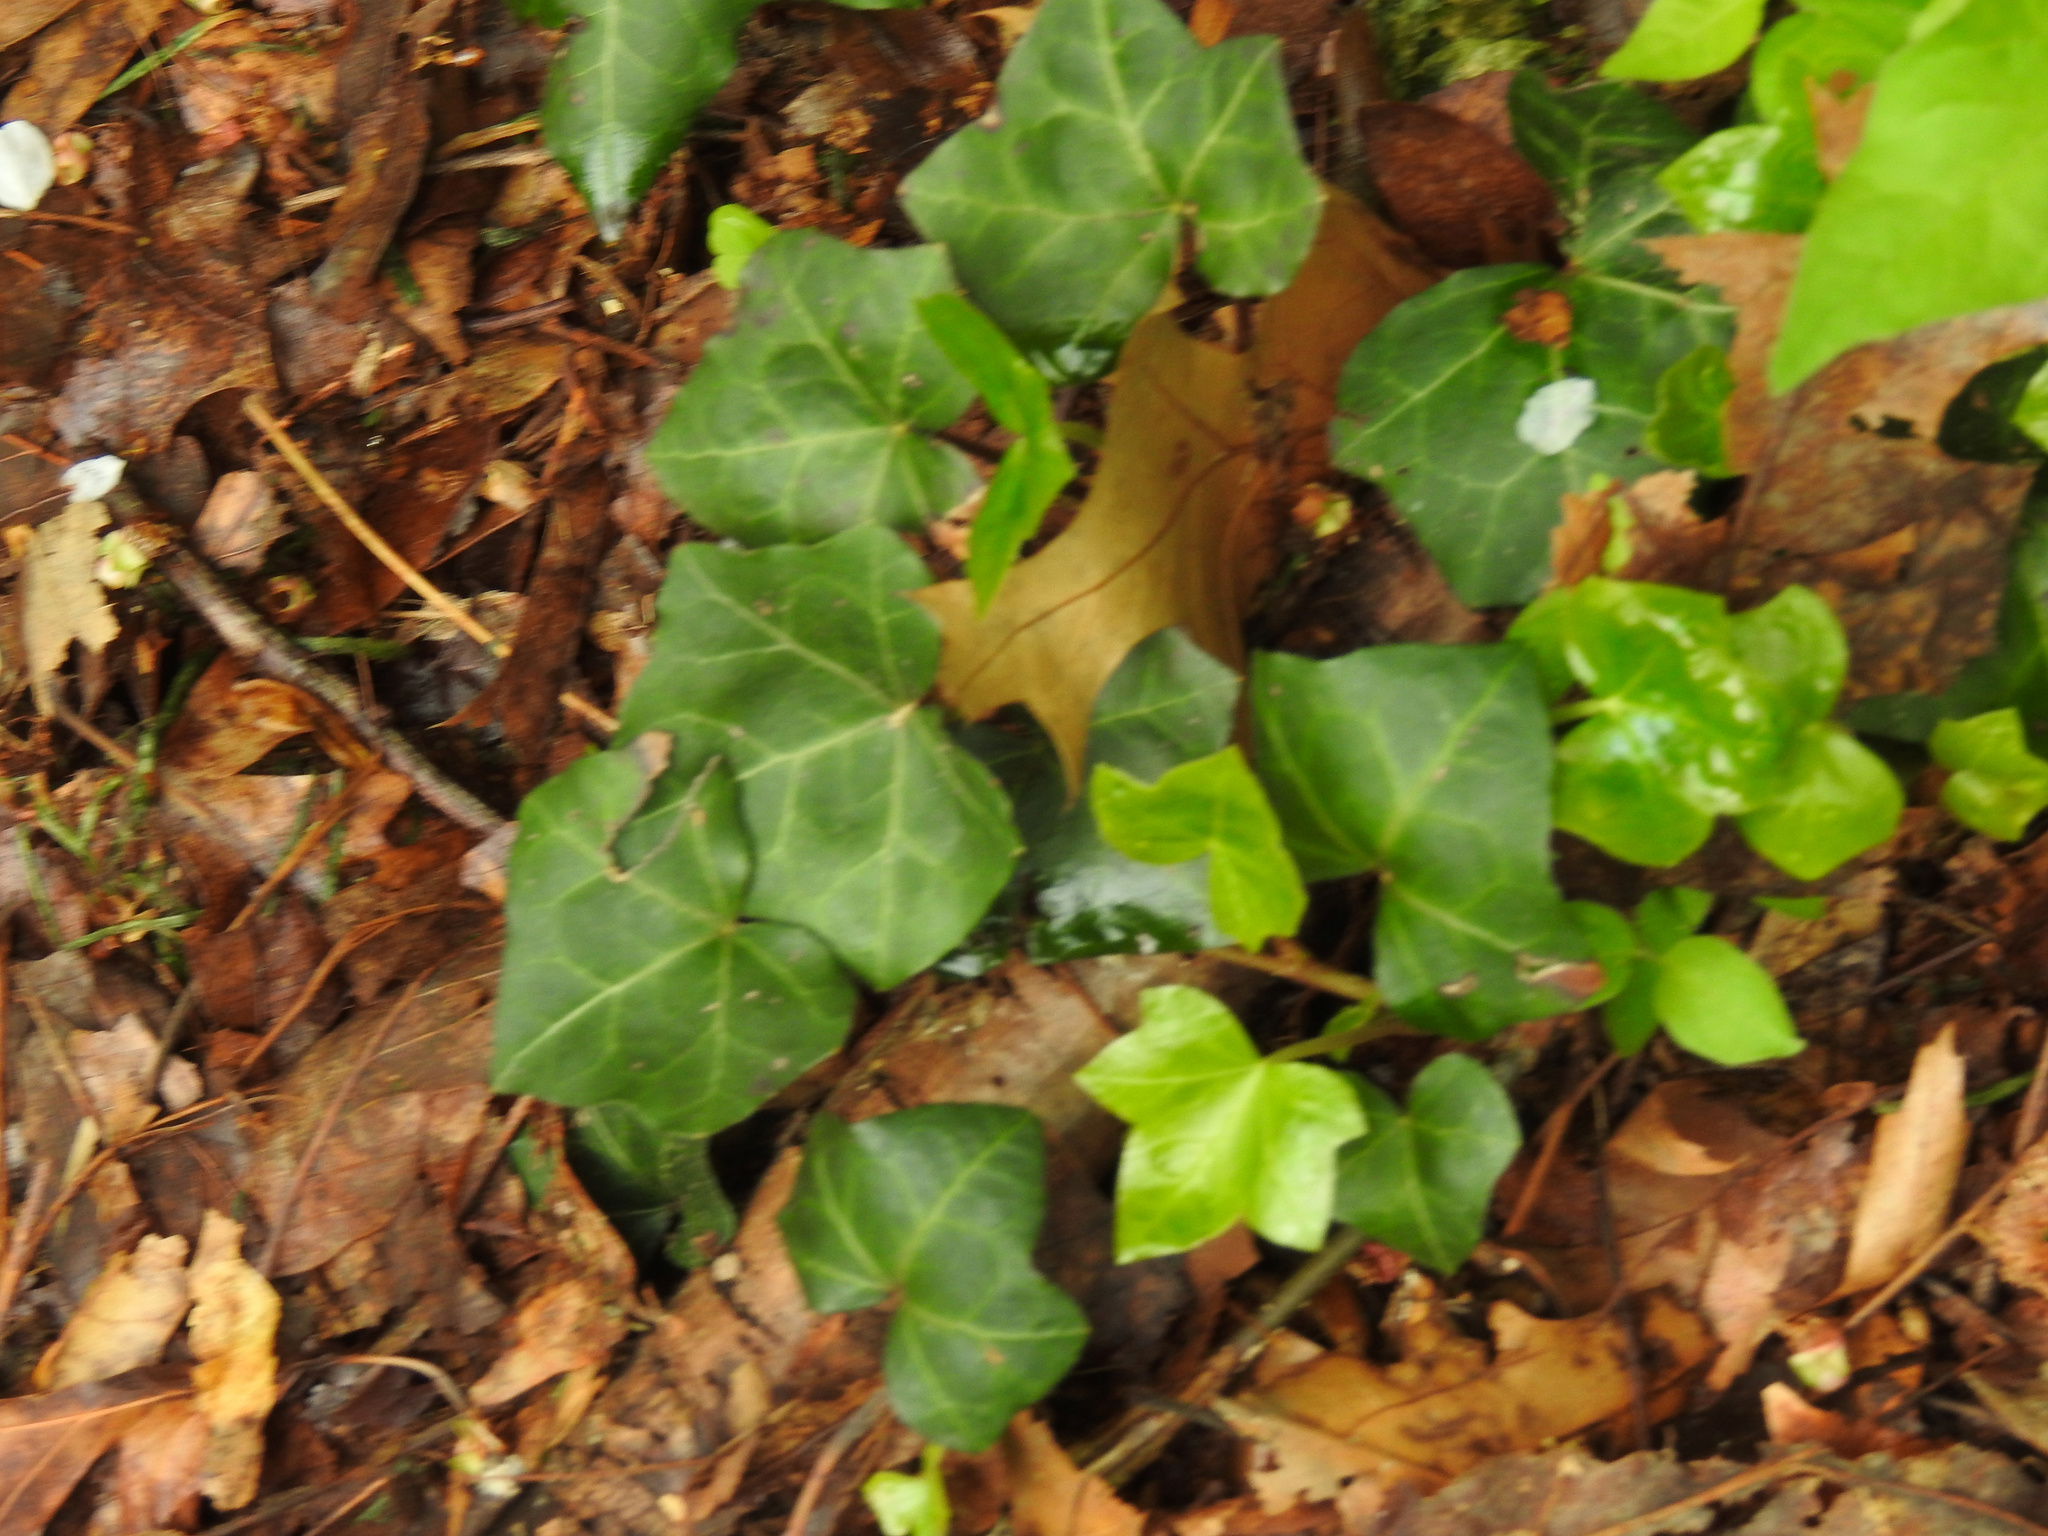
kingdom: Plantae
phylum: Tracheophyta
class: Magnoliopsida
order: Apiales
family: Araliaceae
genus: Hedera
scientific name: Hedera helix
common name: Ivy
